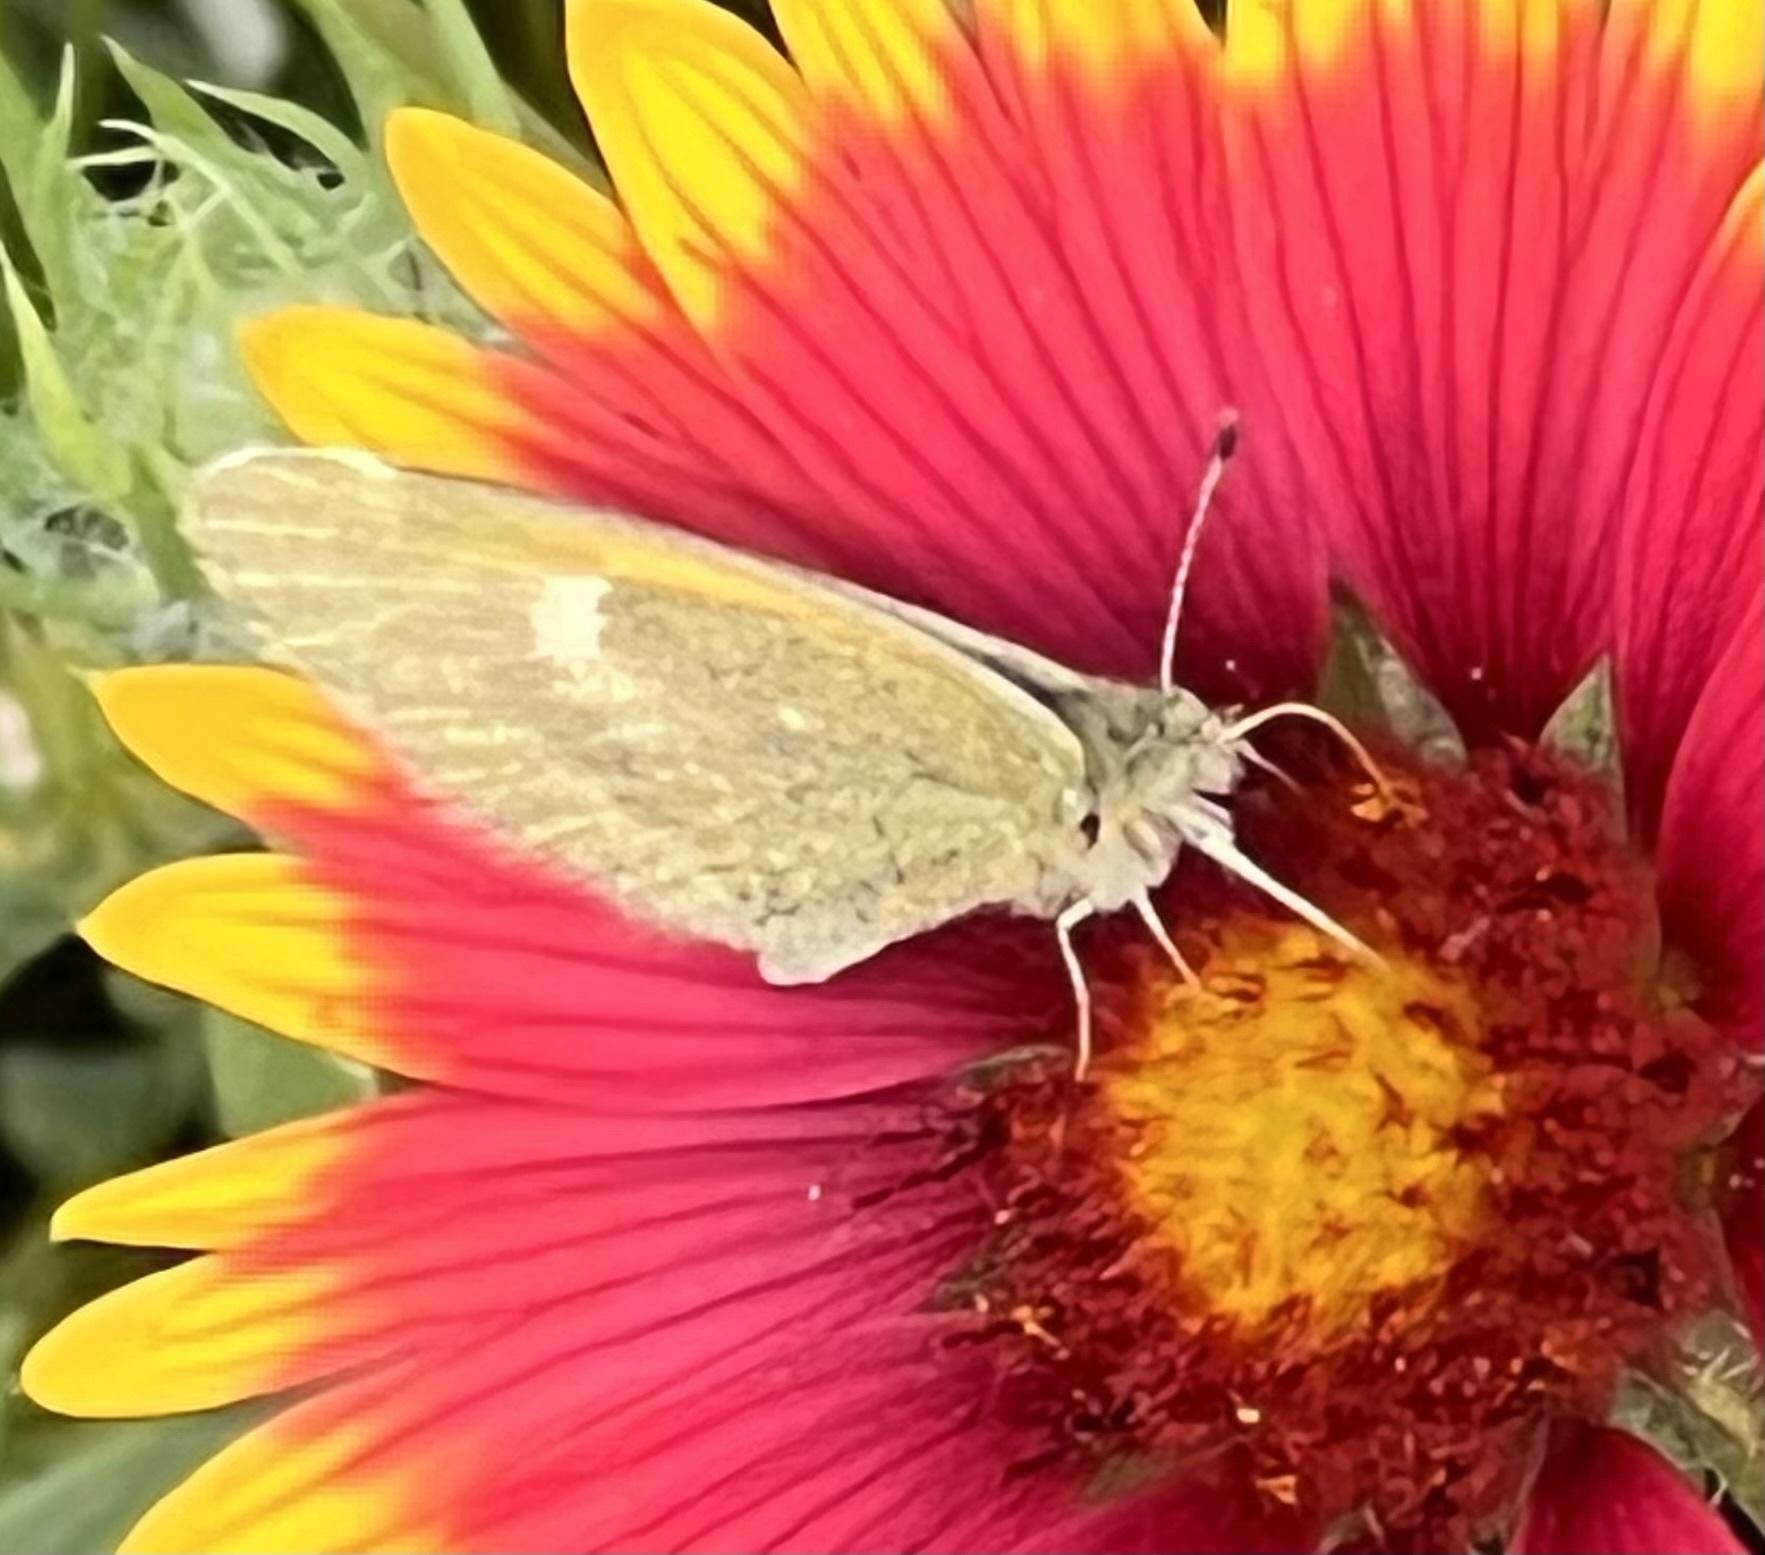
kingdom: Animalia
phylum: Arthropoda
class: Insecta
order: Lepidoptera
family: Pieridae
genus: Nathalis
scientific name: Nathalis iole
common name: Dainty sulphur
